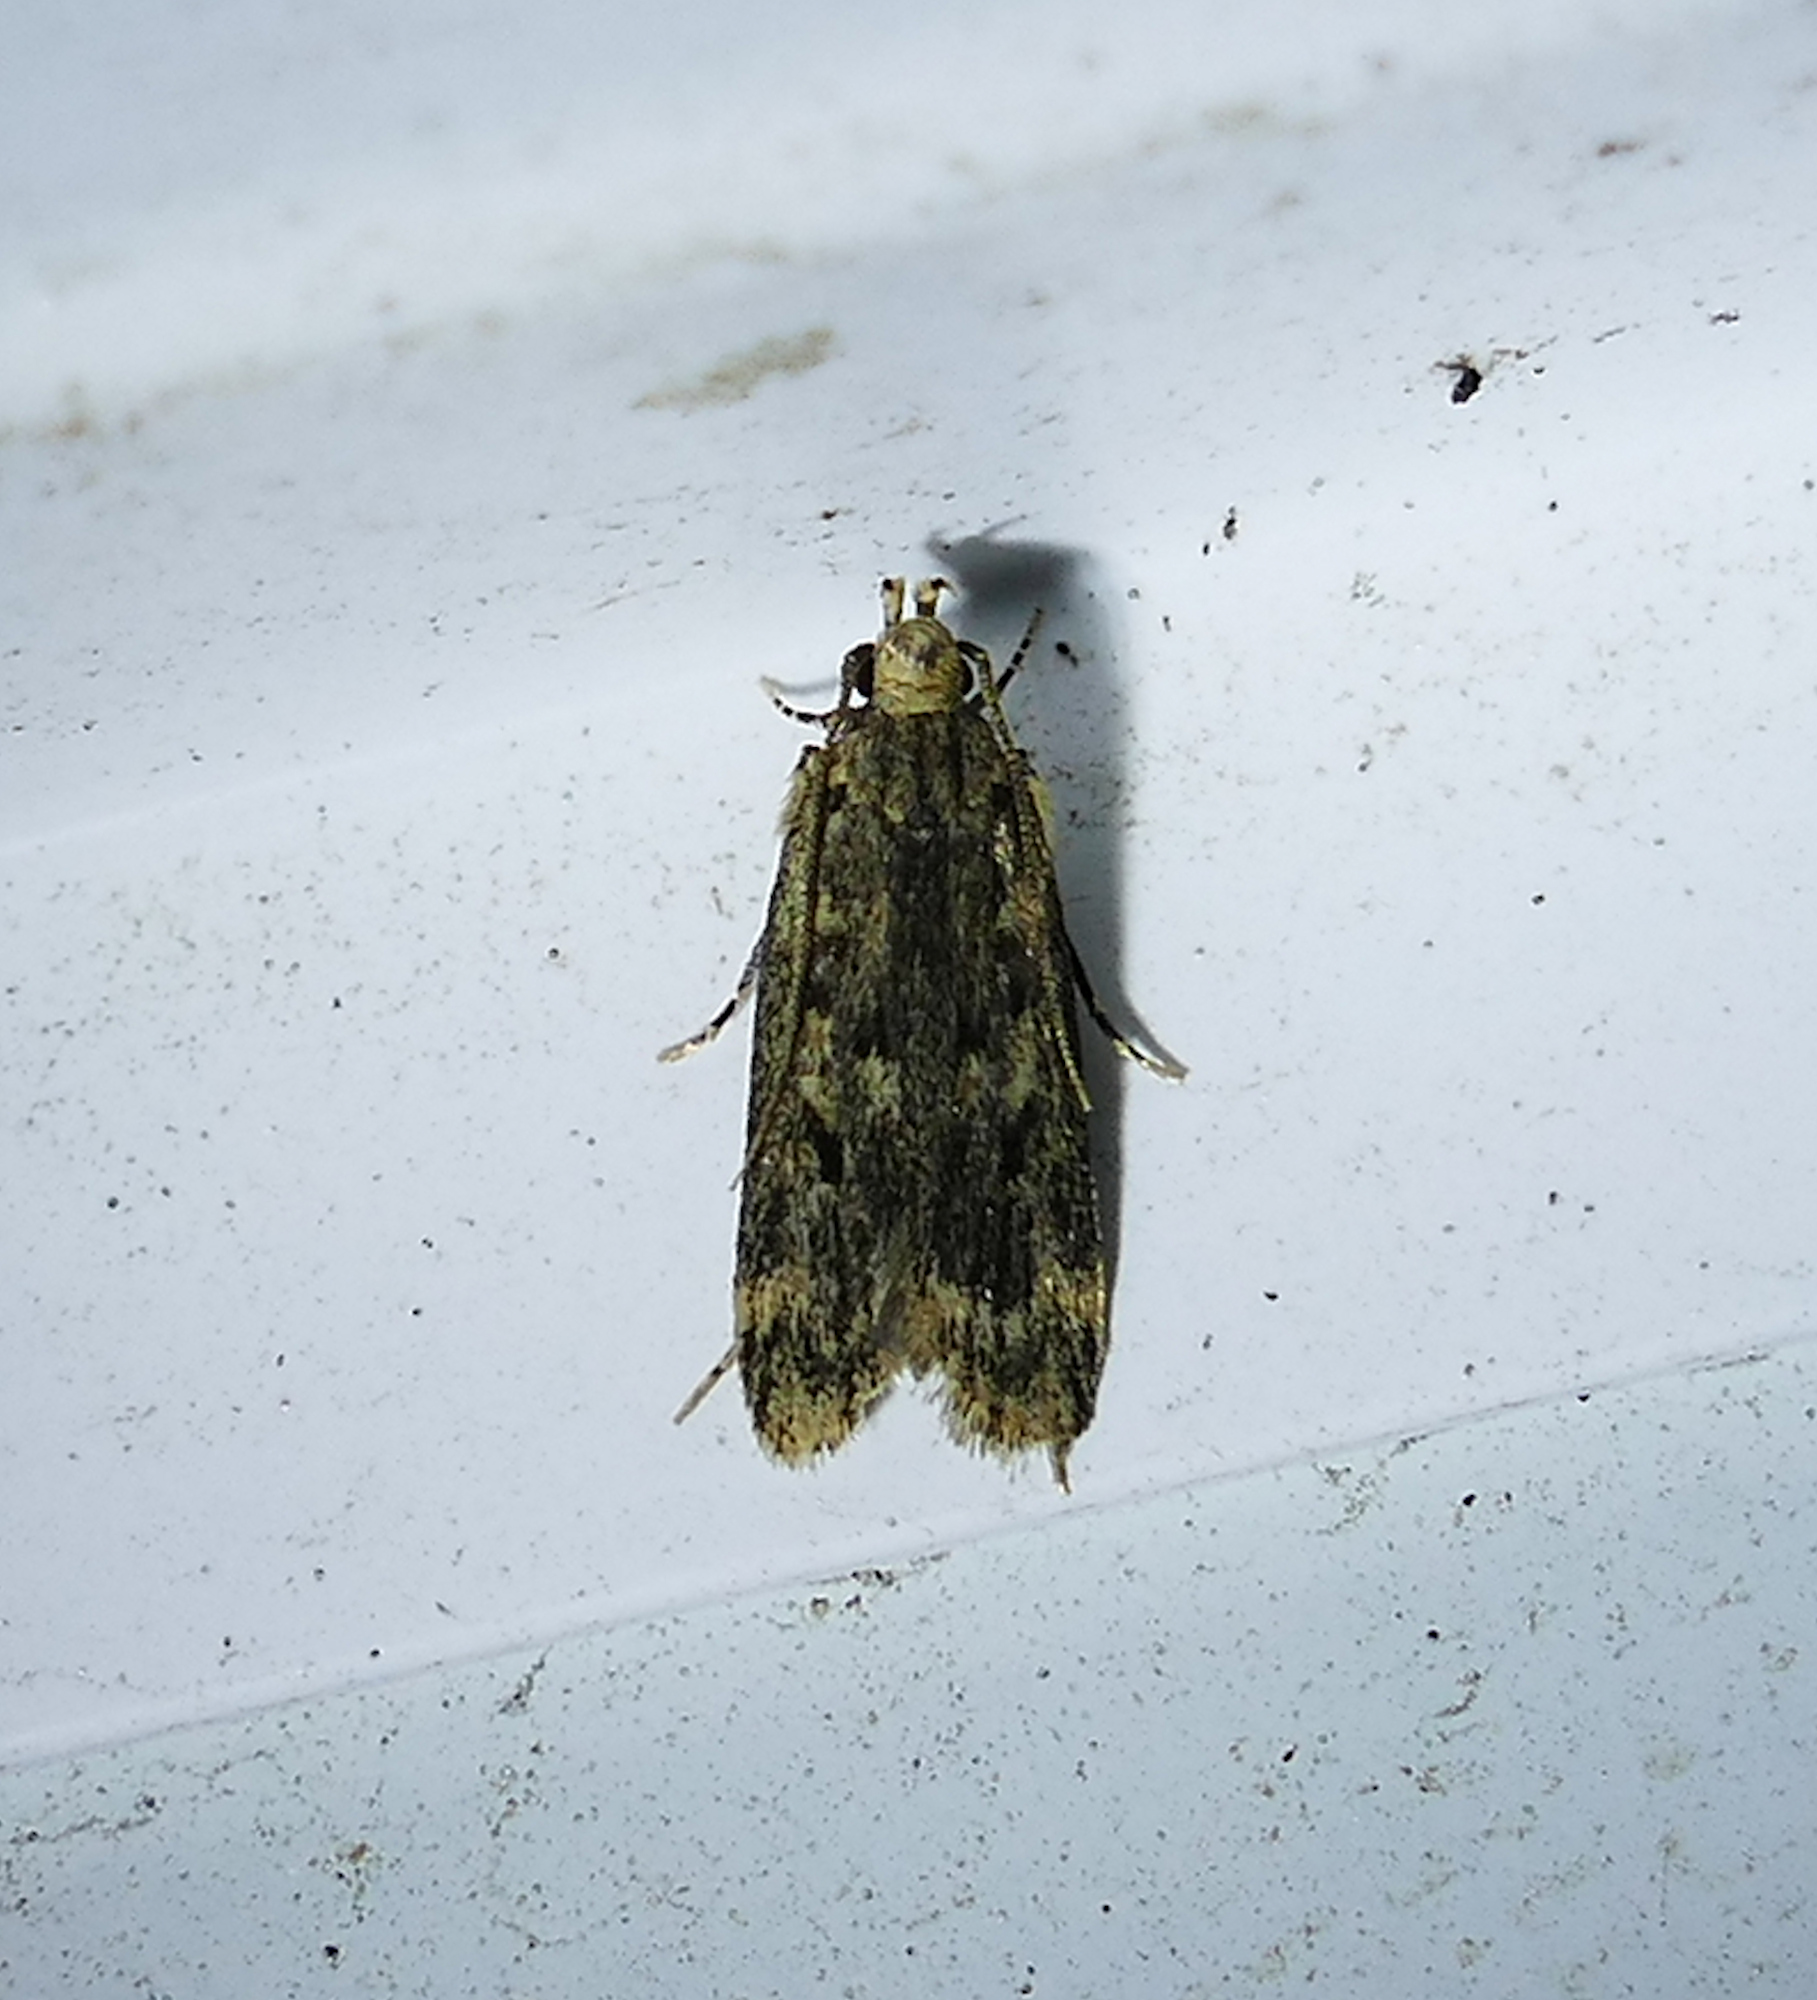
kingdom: Animalia
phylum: Arthropoda
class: Insecta
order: Lepidoptera
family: Lecithoceridae
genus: Martyringa
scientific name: Martyringa xeraula
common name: Himalayan grain moth
